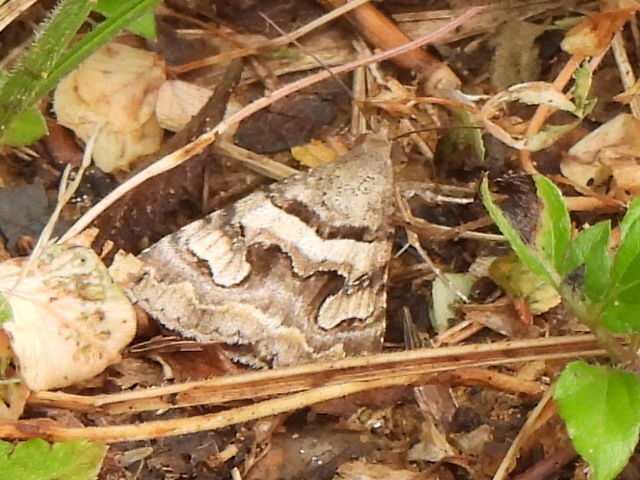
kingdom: Animalia
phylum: Arthropoda
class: Insecta
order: Lepidoptera
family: Erebidae
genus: Bulia
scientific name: Bulia deducta
